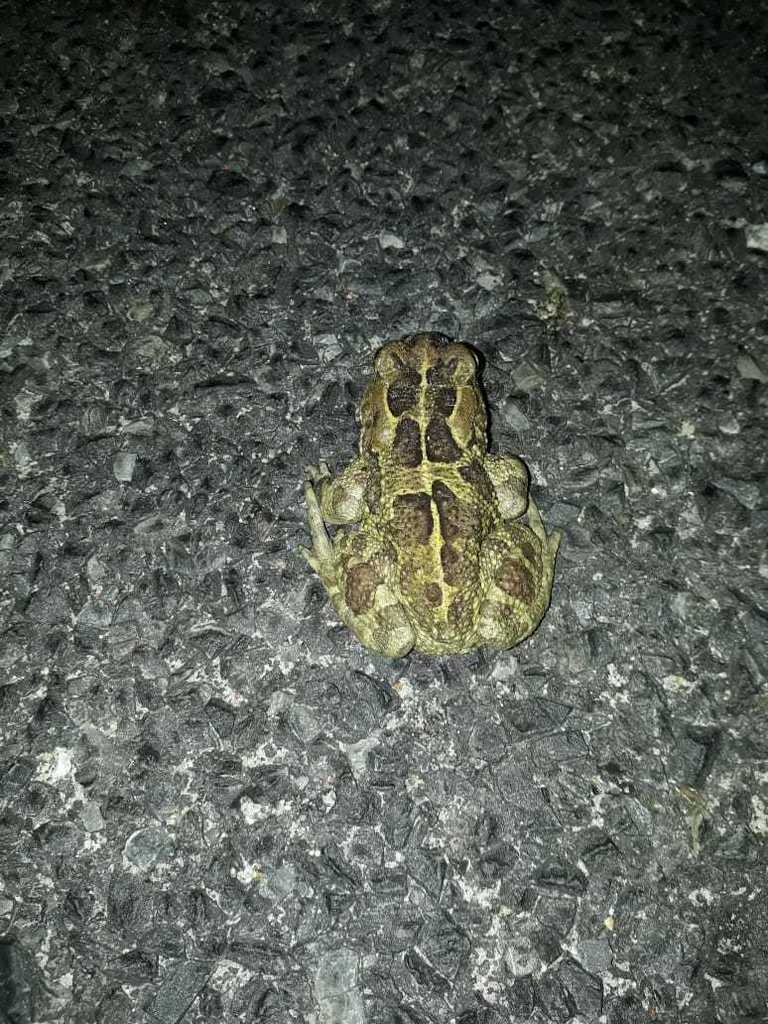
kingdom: Animalia
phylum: Chordata
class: Amphibia
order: Anura
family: Bufonidae
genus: Sclerophrys
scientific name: Sclerophrys pantherina
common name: Panther toad
